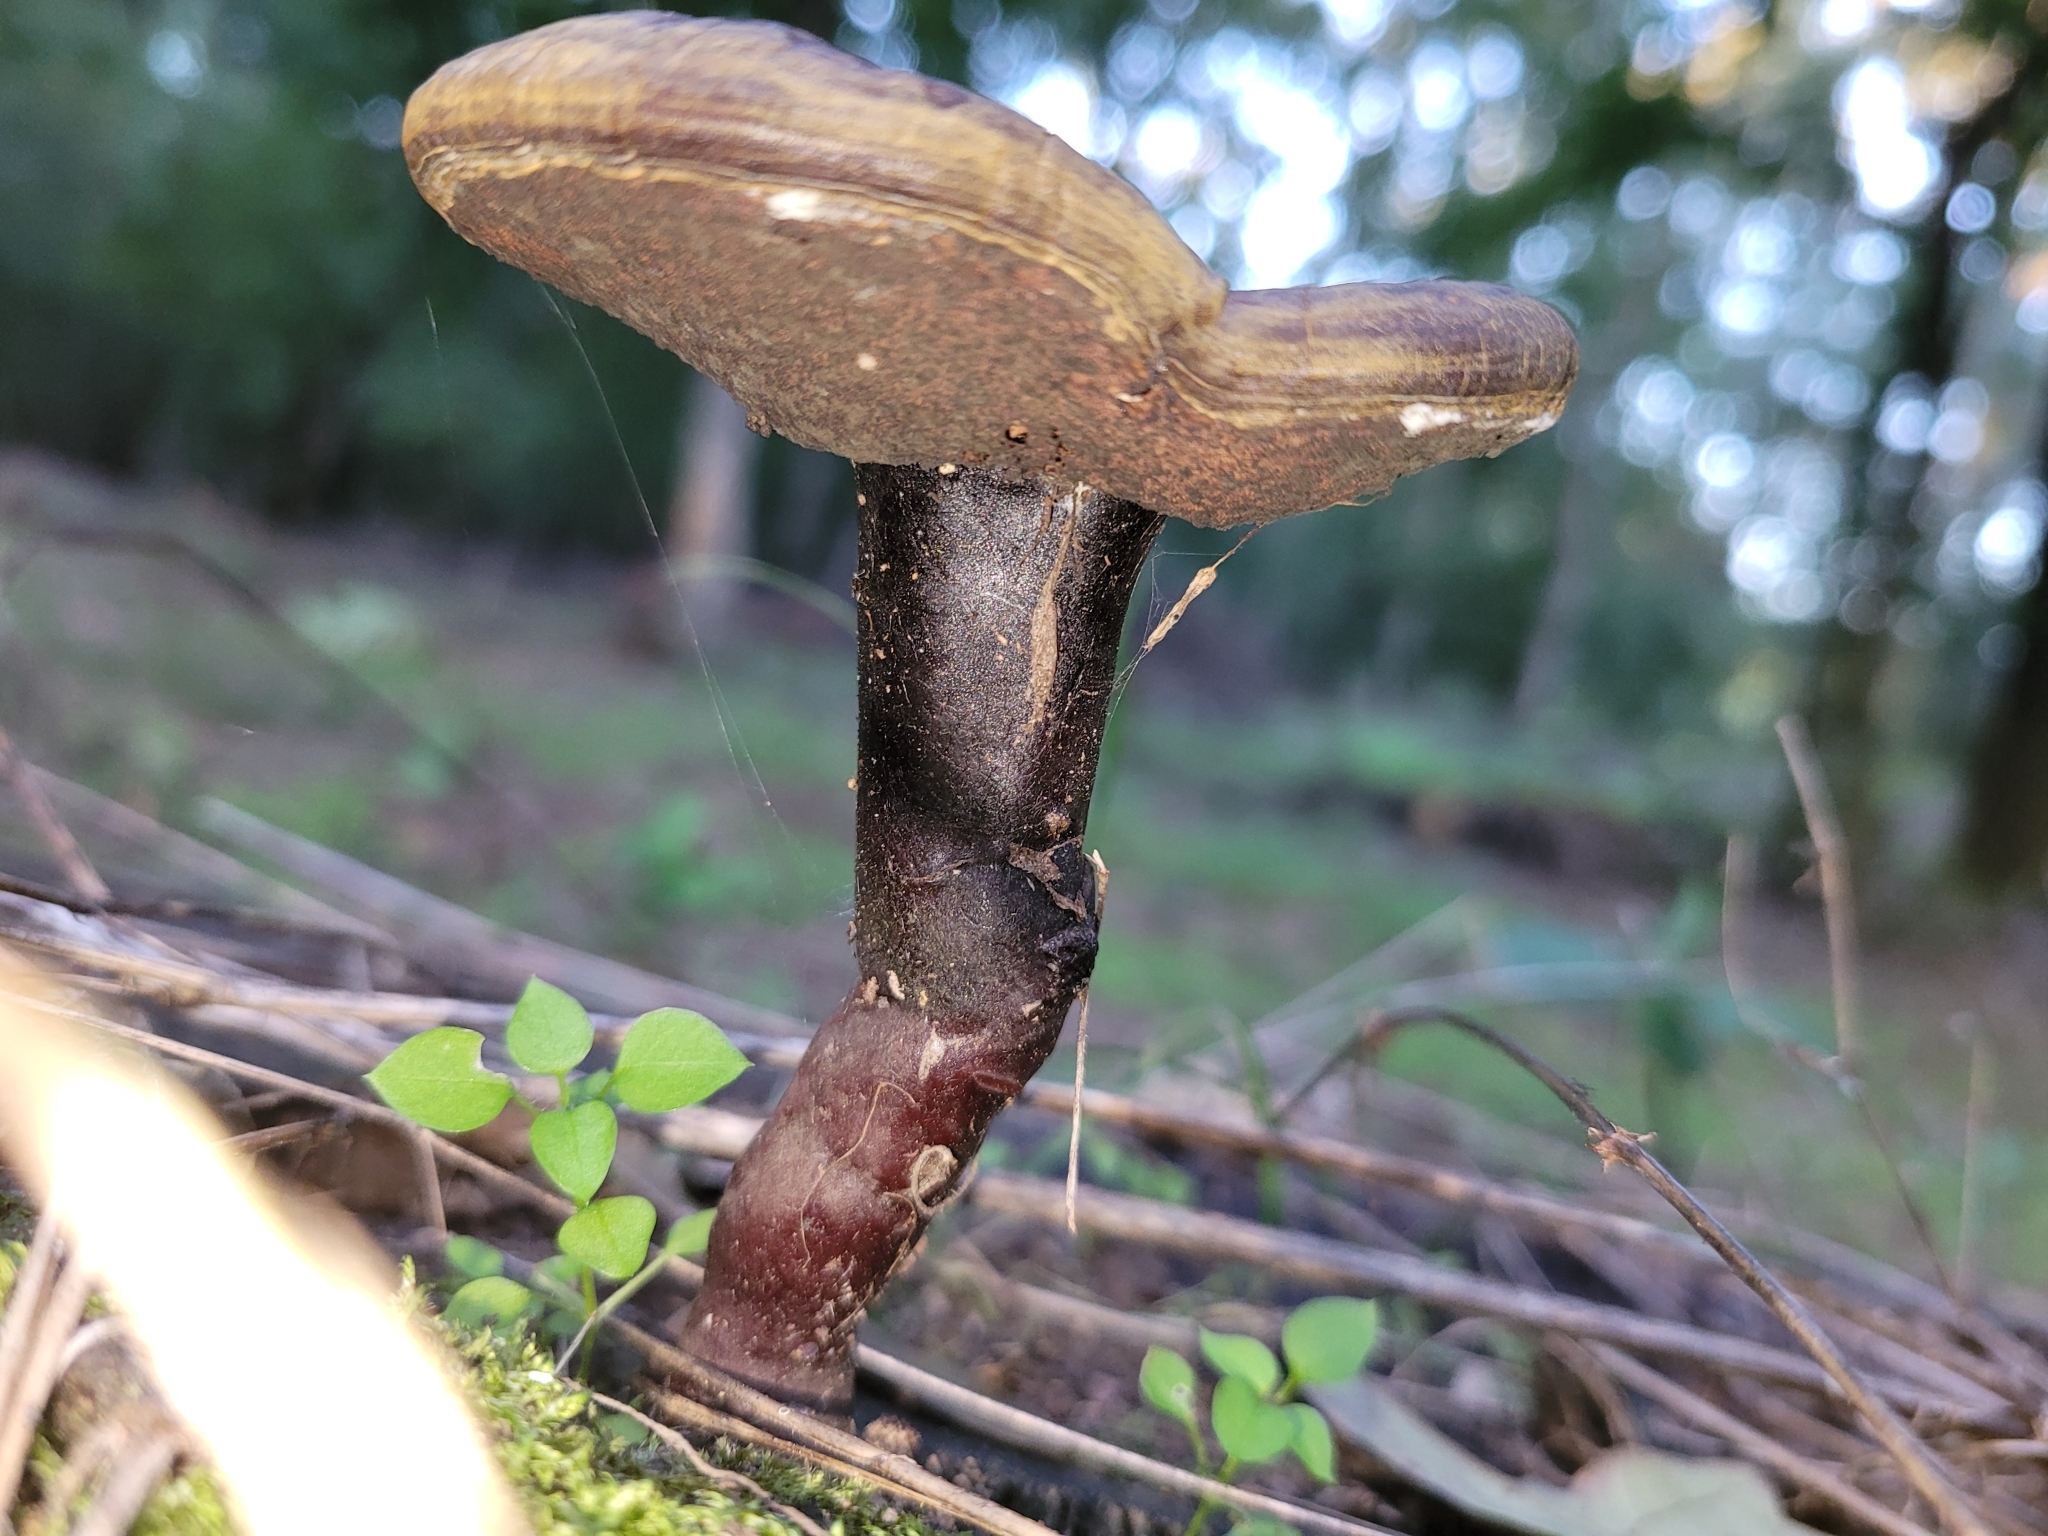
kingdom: Fungi
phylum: Basidiomycota
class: Agaricomycetes
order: Polyporales
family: Polyporaceae
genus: Ganoderma
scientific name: Ganoderma lucidum
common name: Lacquered bracket
